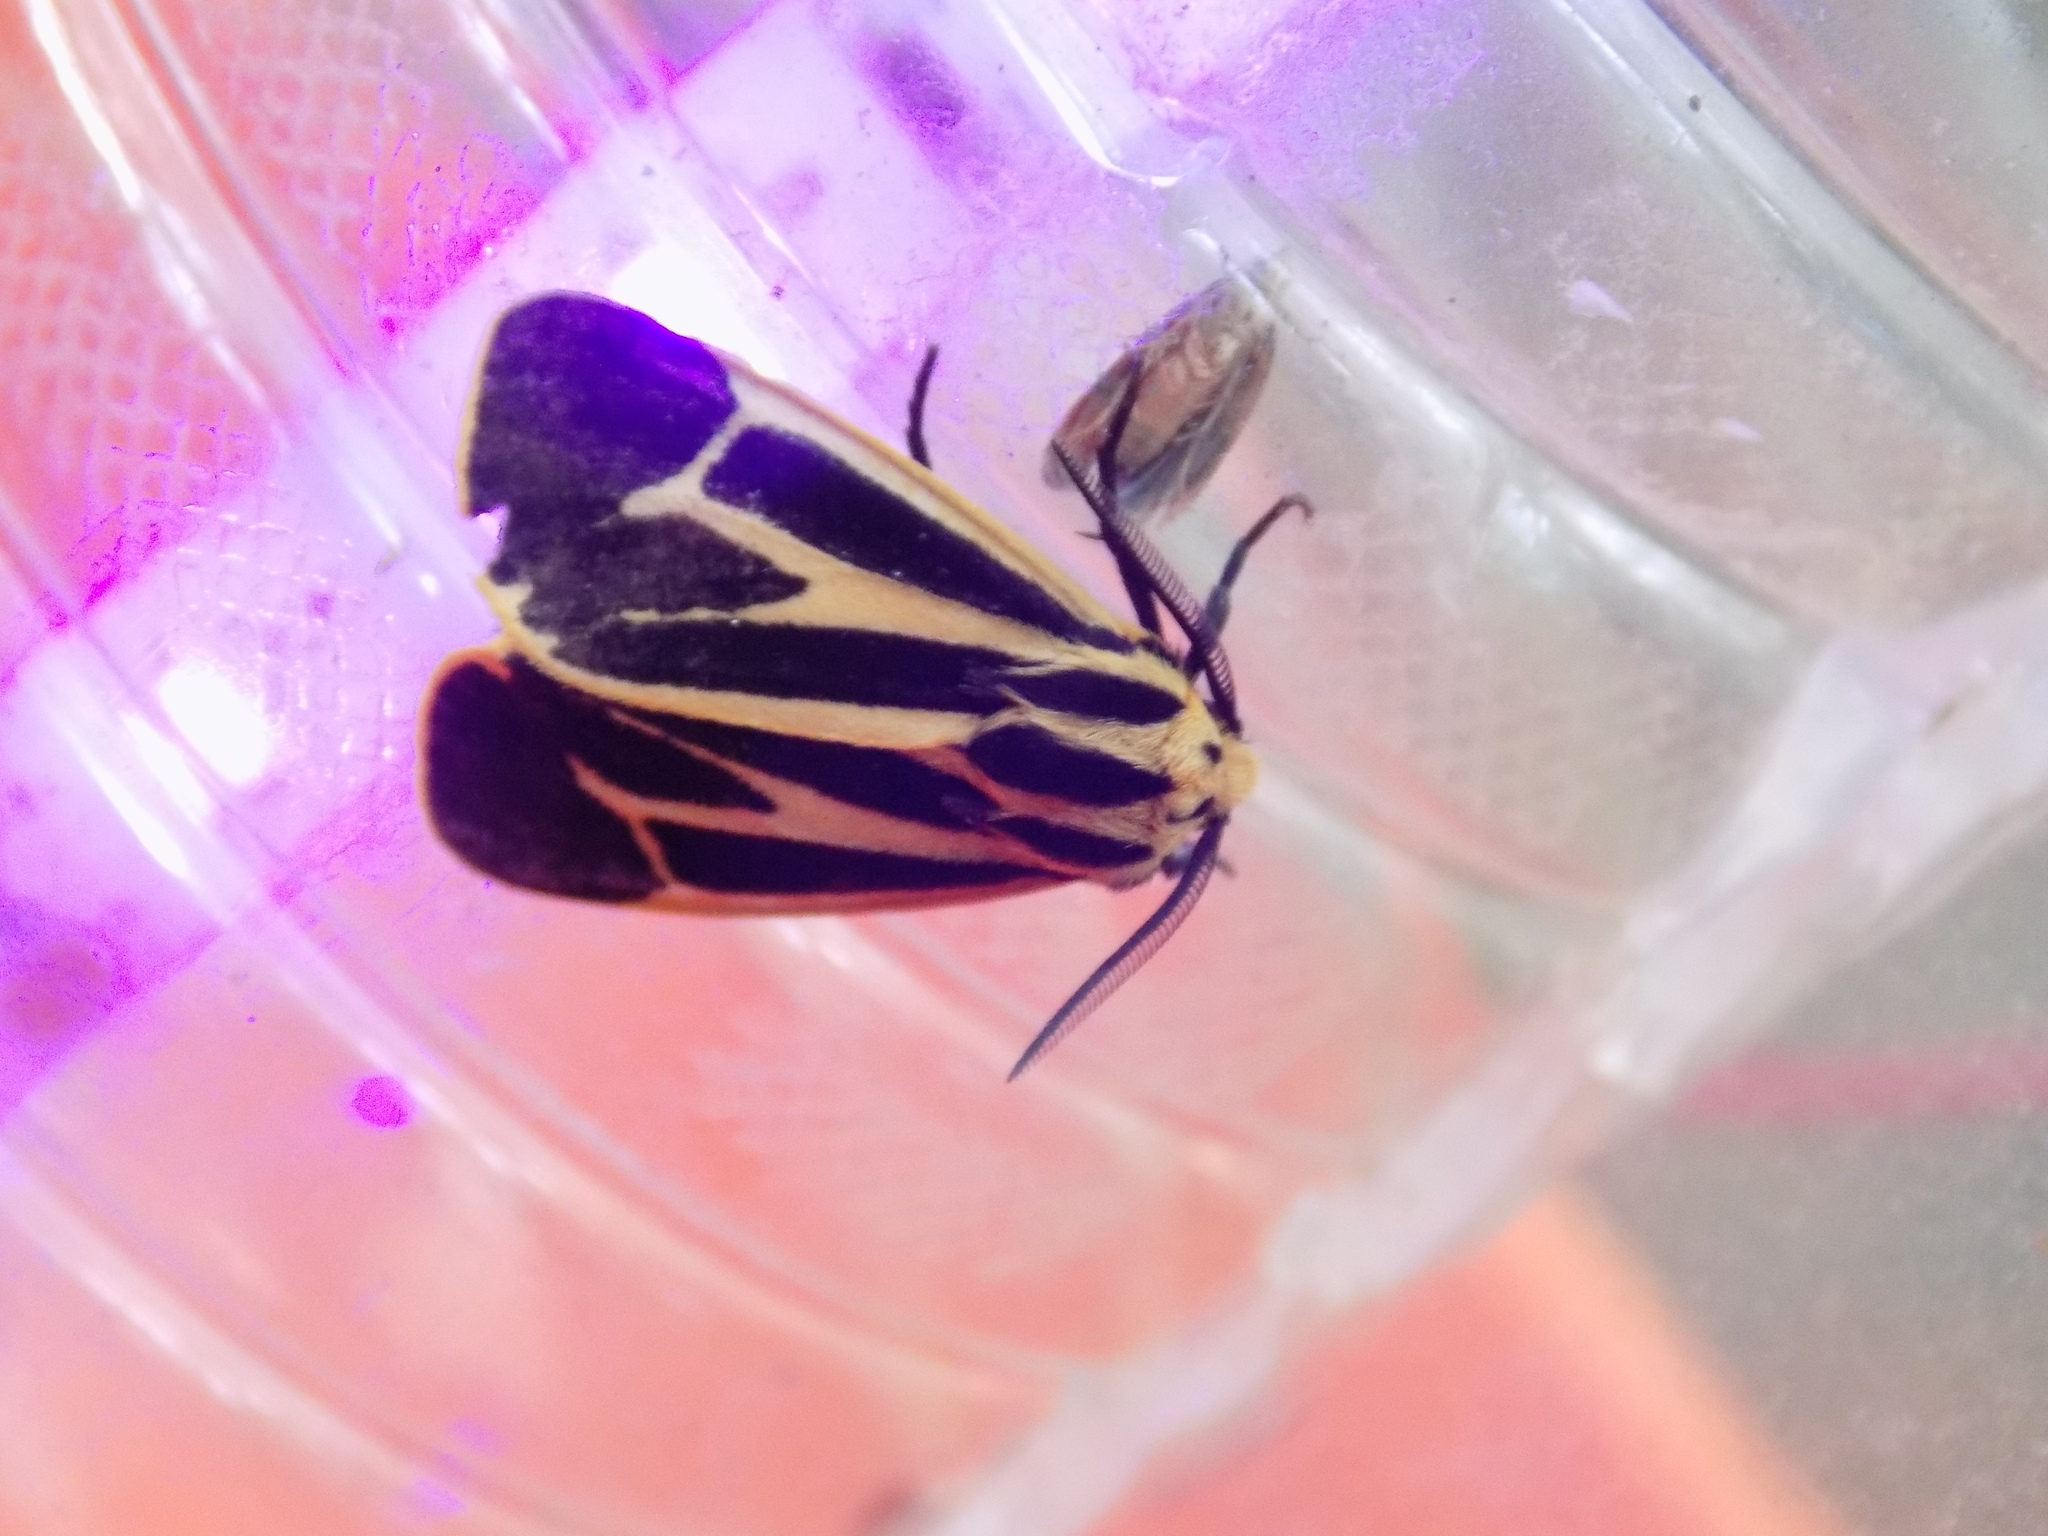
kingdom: Animalia
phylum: Arthropoda
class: Insecta
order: Lepidoptera
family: Erebidae
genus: Apantesis
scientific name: Apantesis vittata
